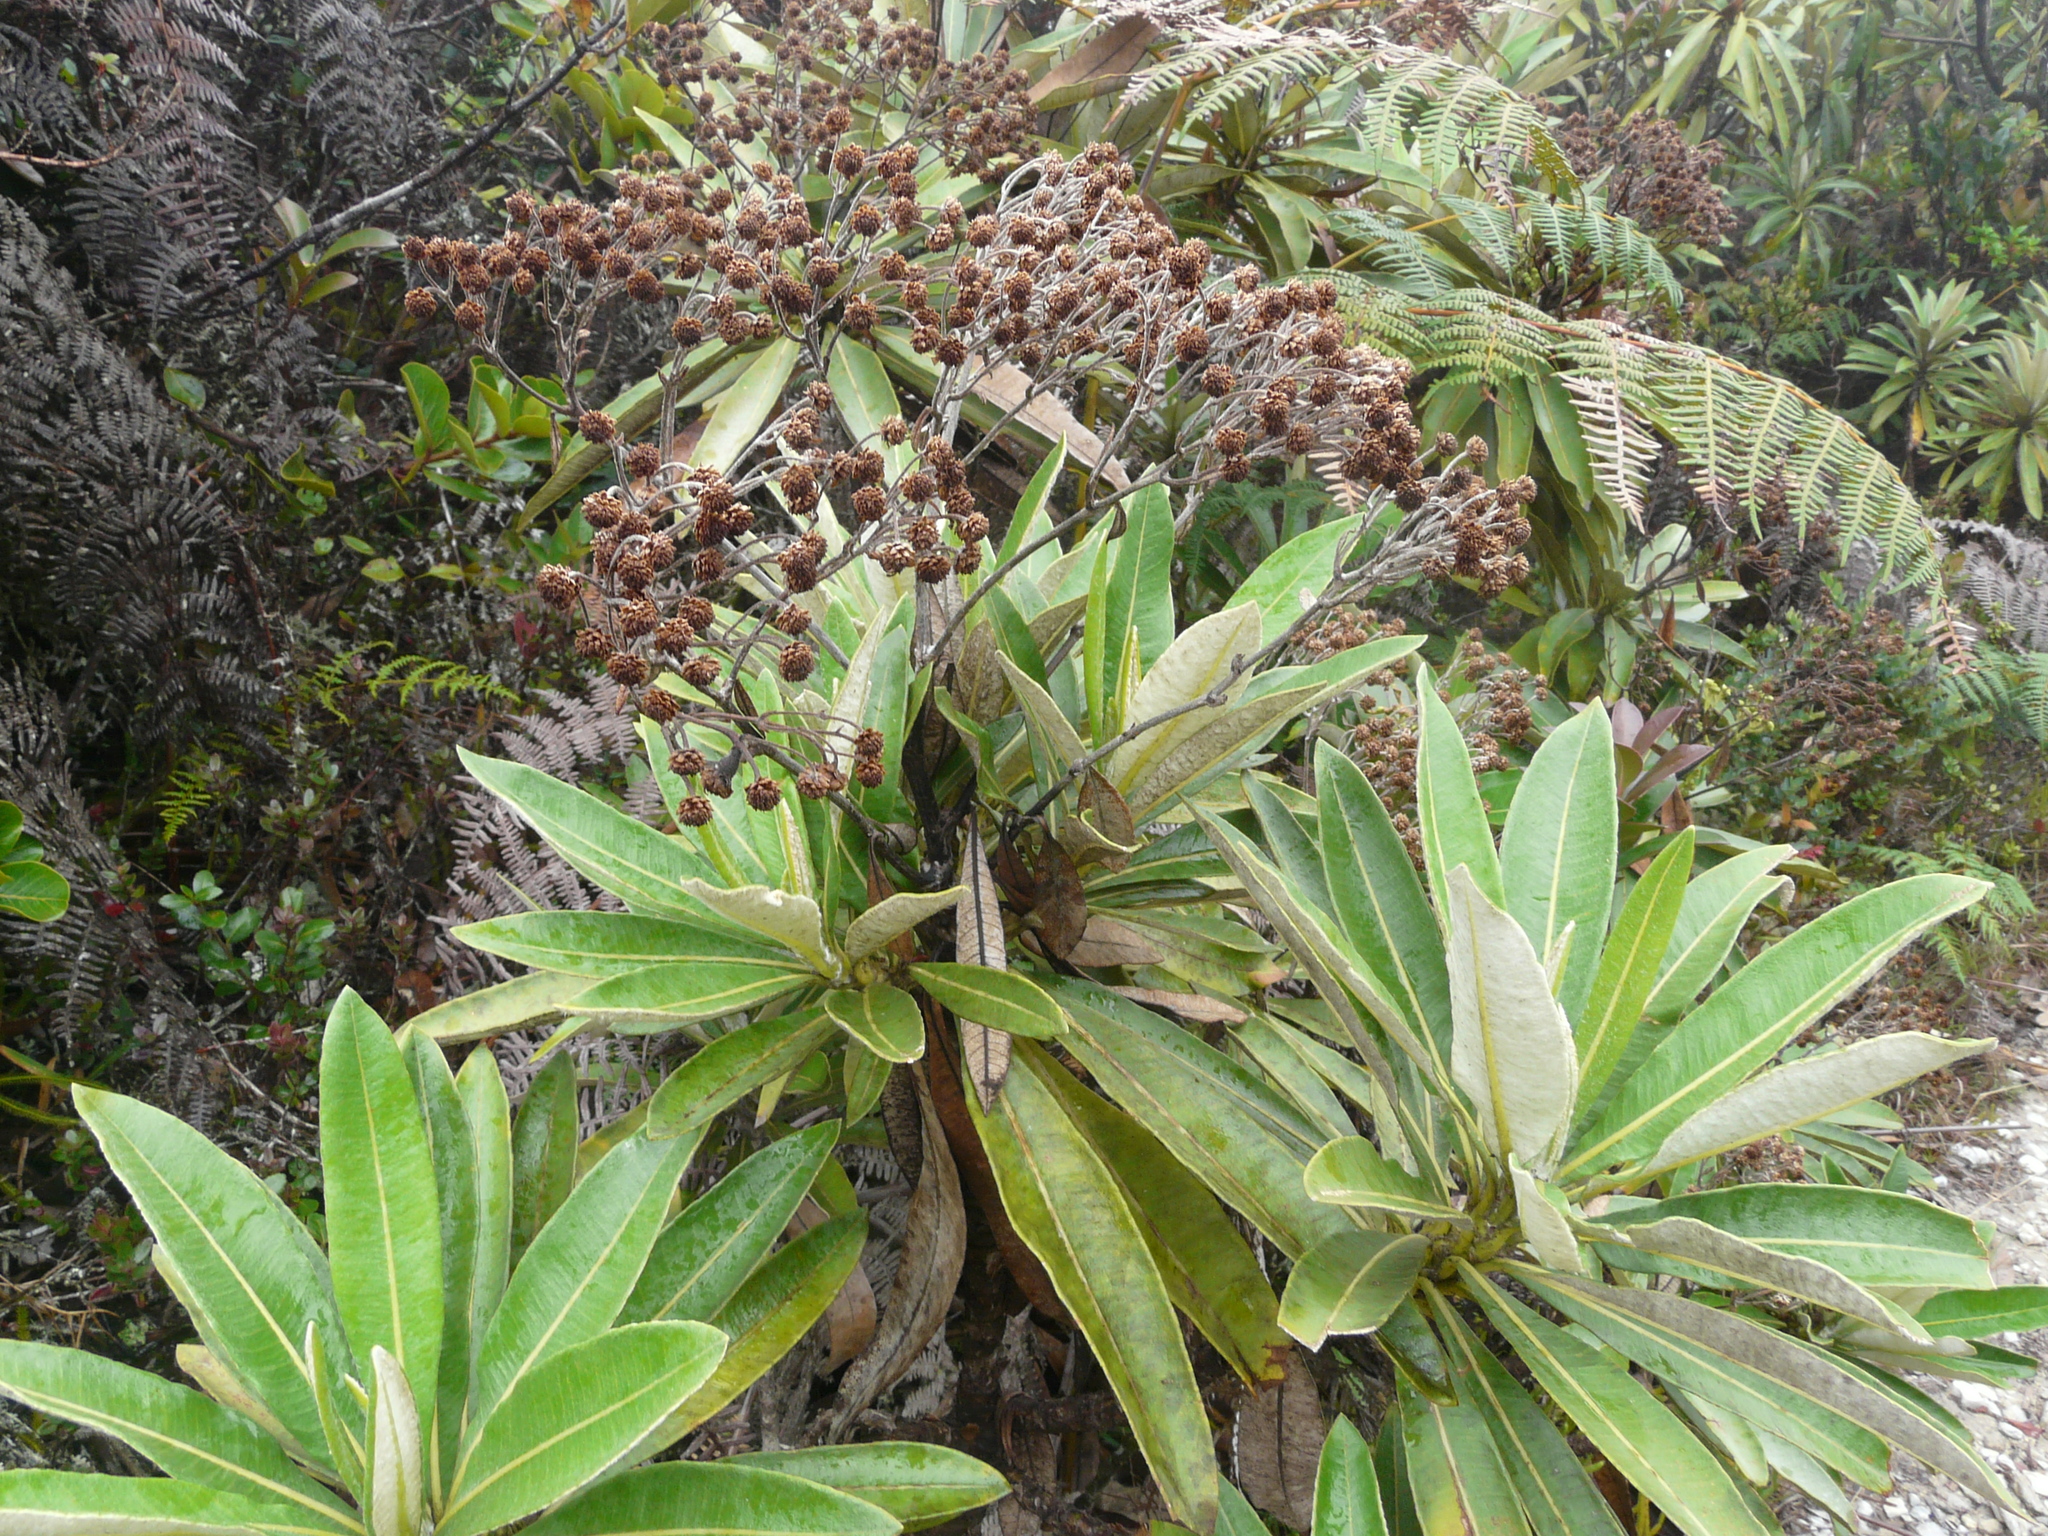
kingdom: Plantae
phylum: Tracheophyta
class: Magnoliopsida
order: Asterales
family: Asteraceae
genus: Espeletia
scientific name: Espeletia neriifolia
